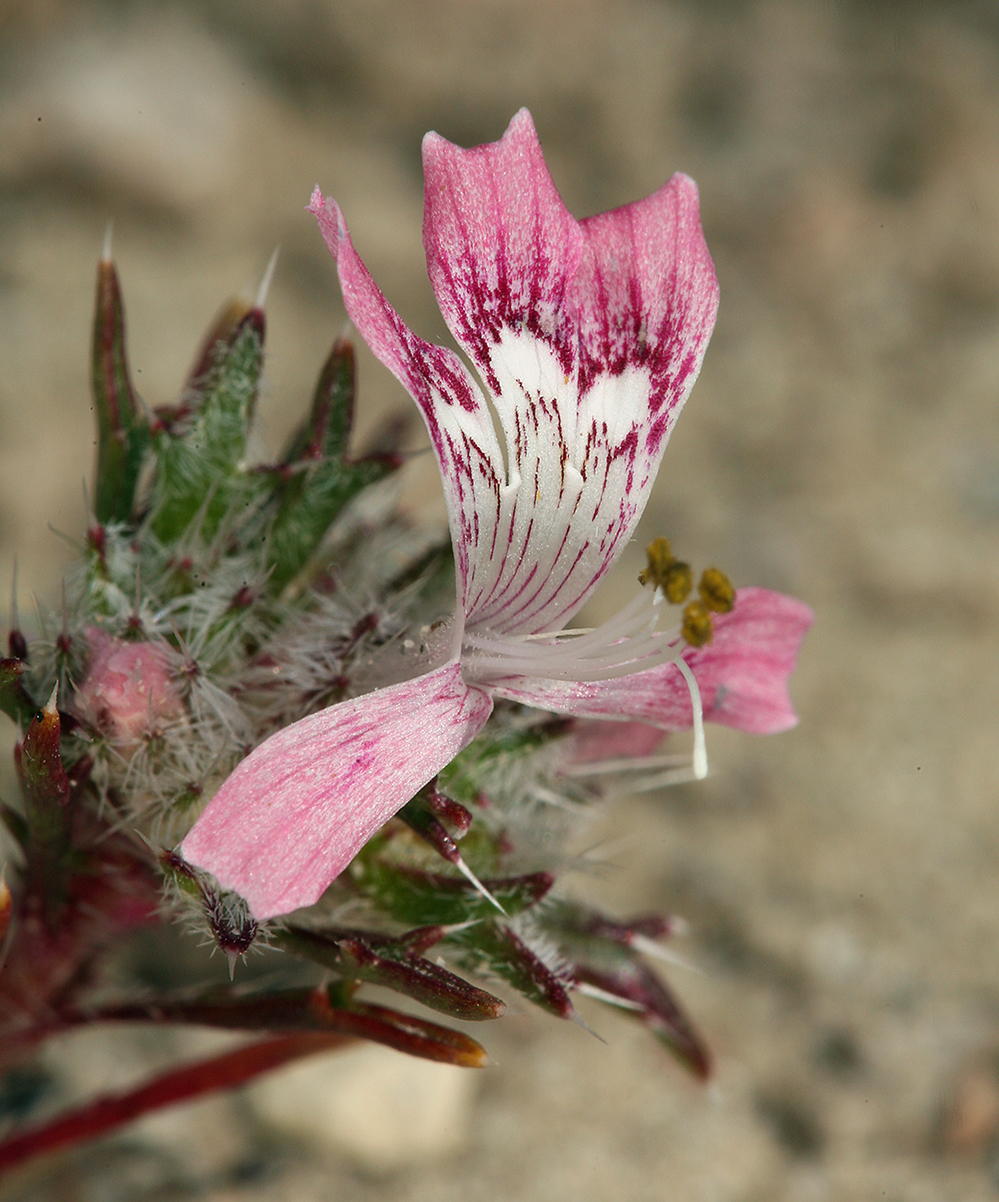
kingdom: Plantae
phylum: Tracheophyta
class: Magnoliopsida
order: Ericales
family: Polemoniaceae
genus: Loeseliastrum
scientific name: Loeseliastrum matthewsii
